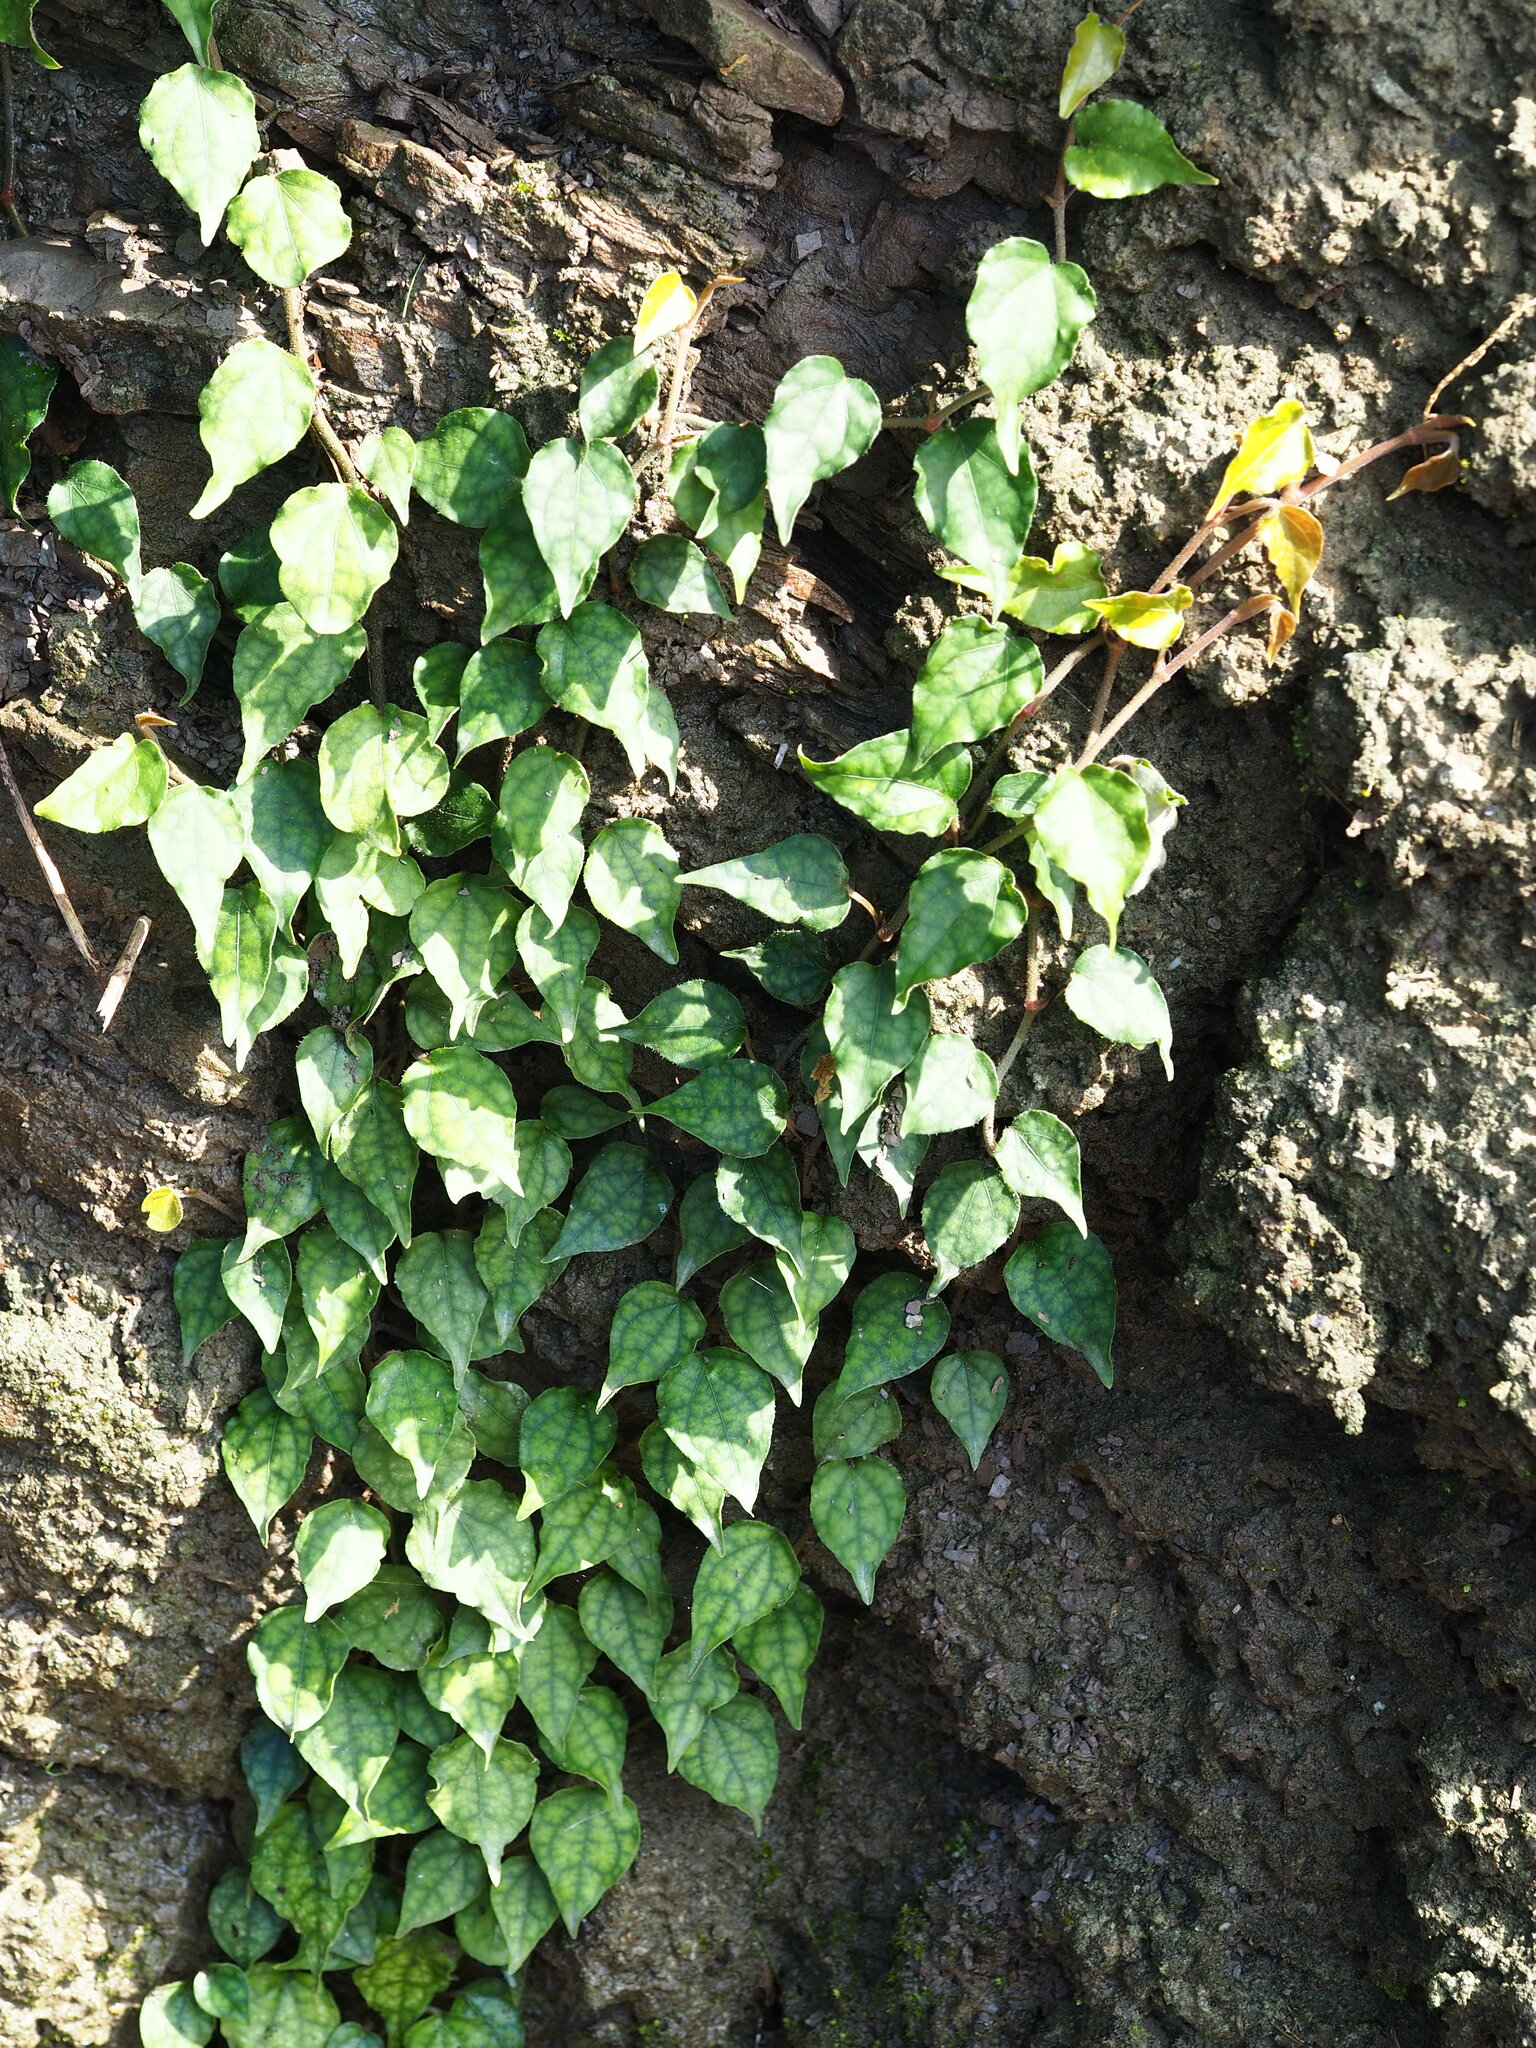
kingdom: Plantae
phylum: Tracheophyta
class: Magnoliopsida
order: Piperales
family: Piperaceae
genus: Piper
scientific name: Piper kadsura
